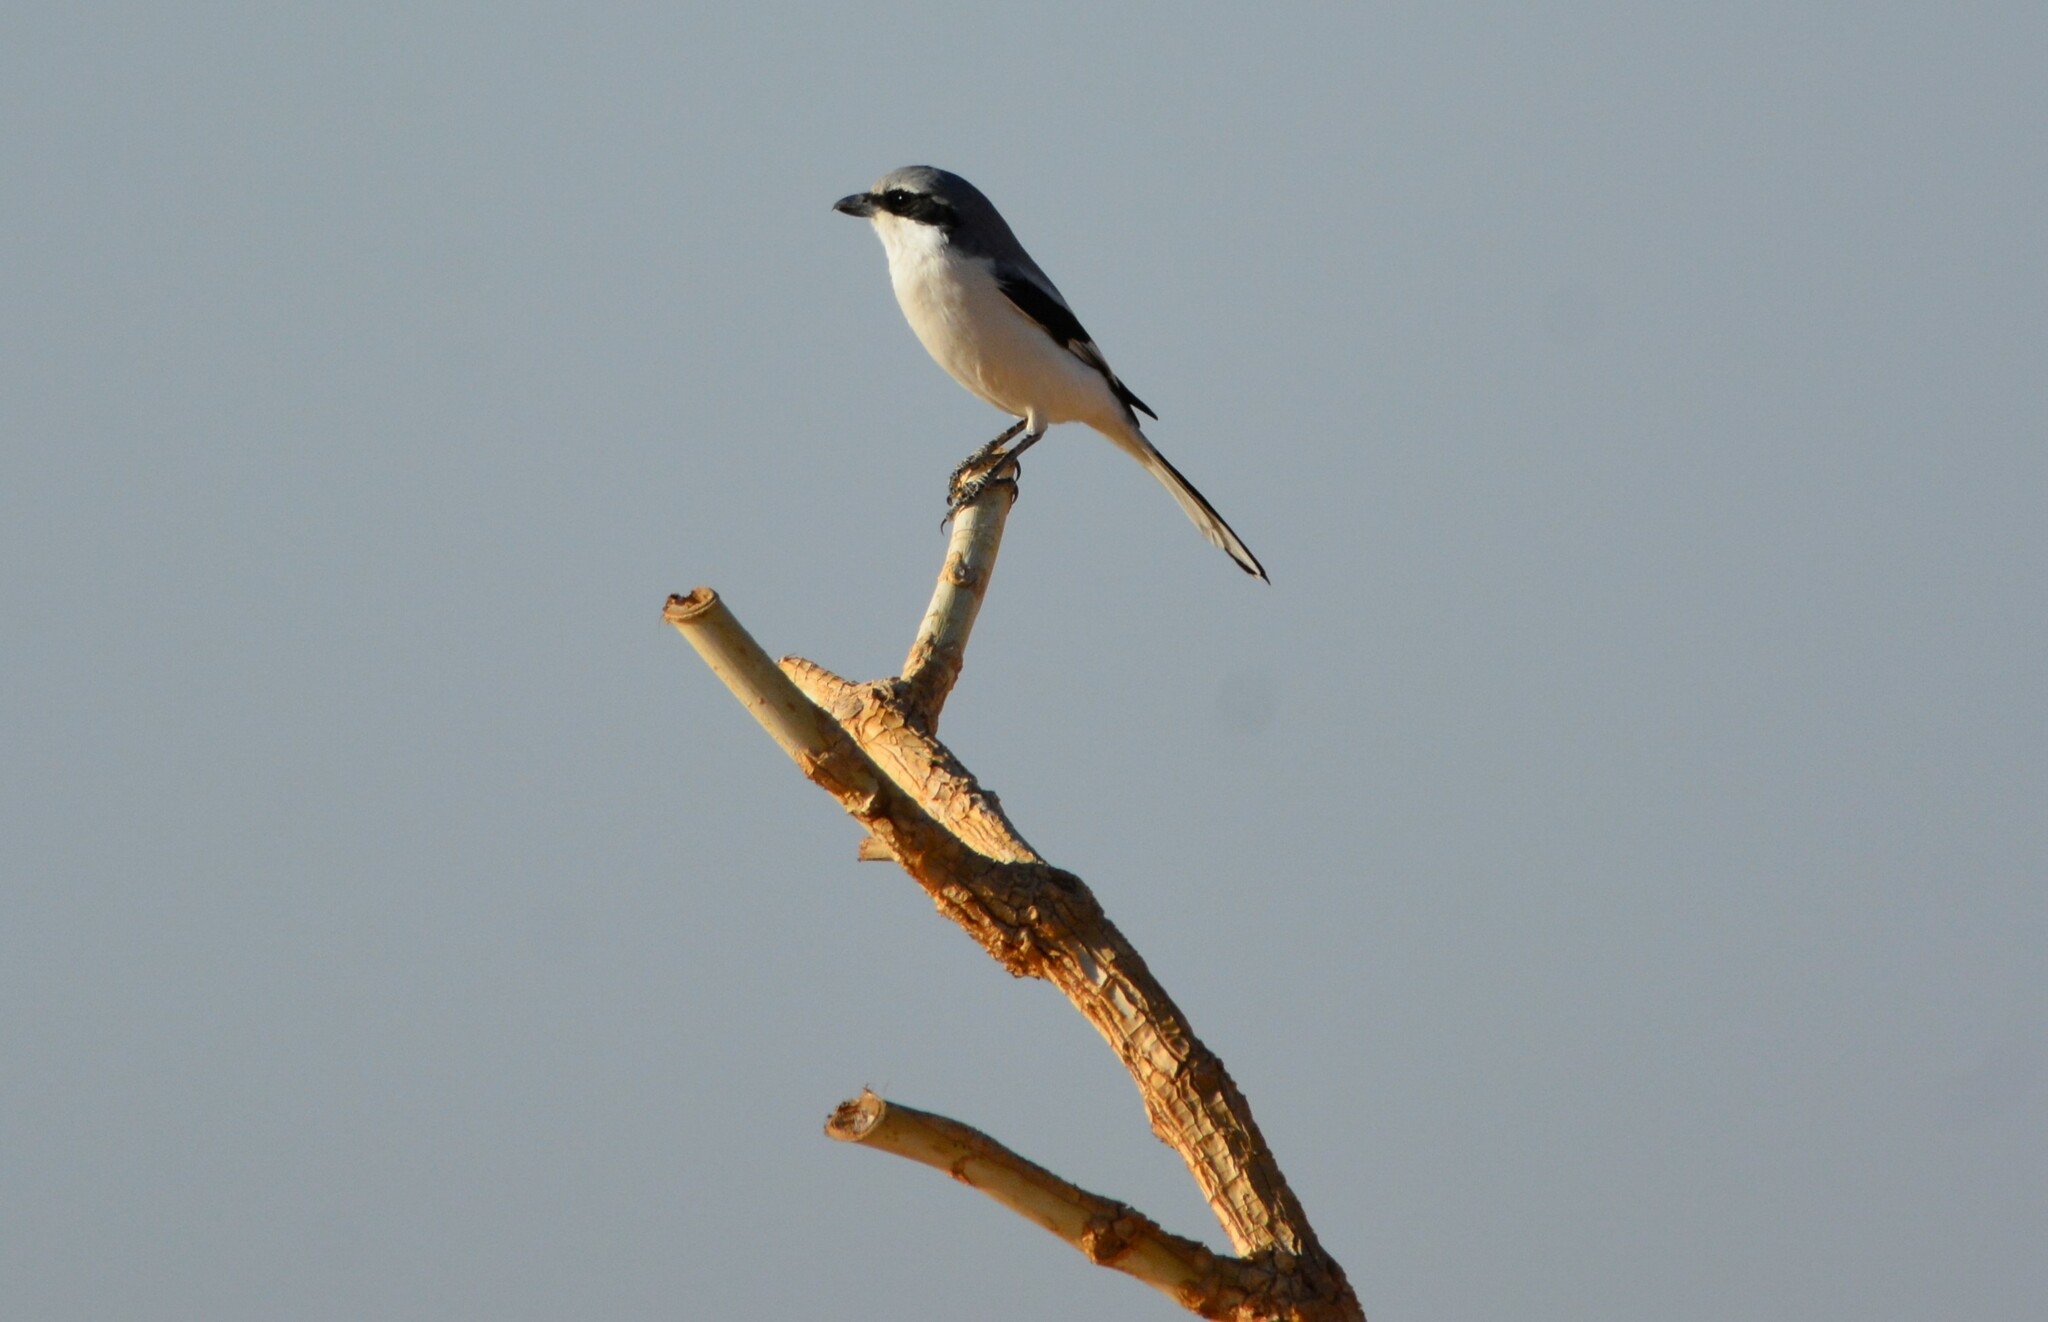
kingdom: Animalia
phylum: Chordata
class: Aves
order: Passeriformes
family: Laniidae
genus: Lanius
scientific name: Lanius excubitor
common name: Great grey shrike
